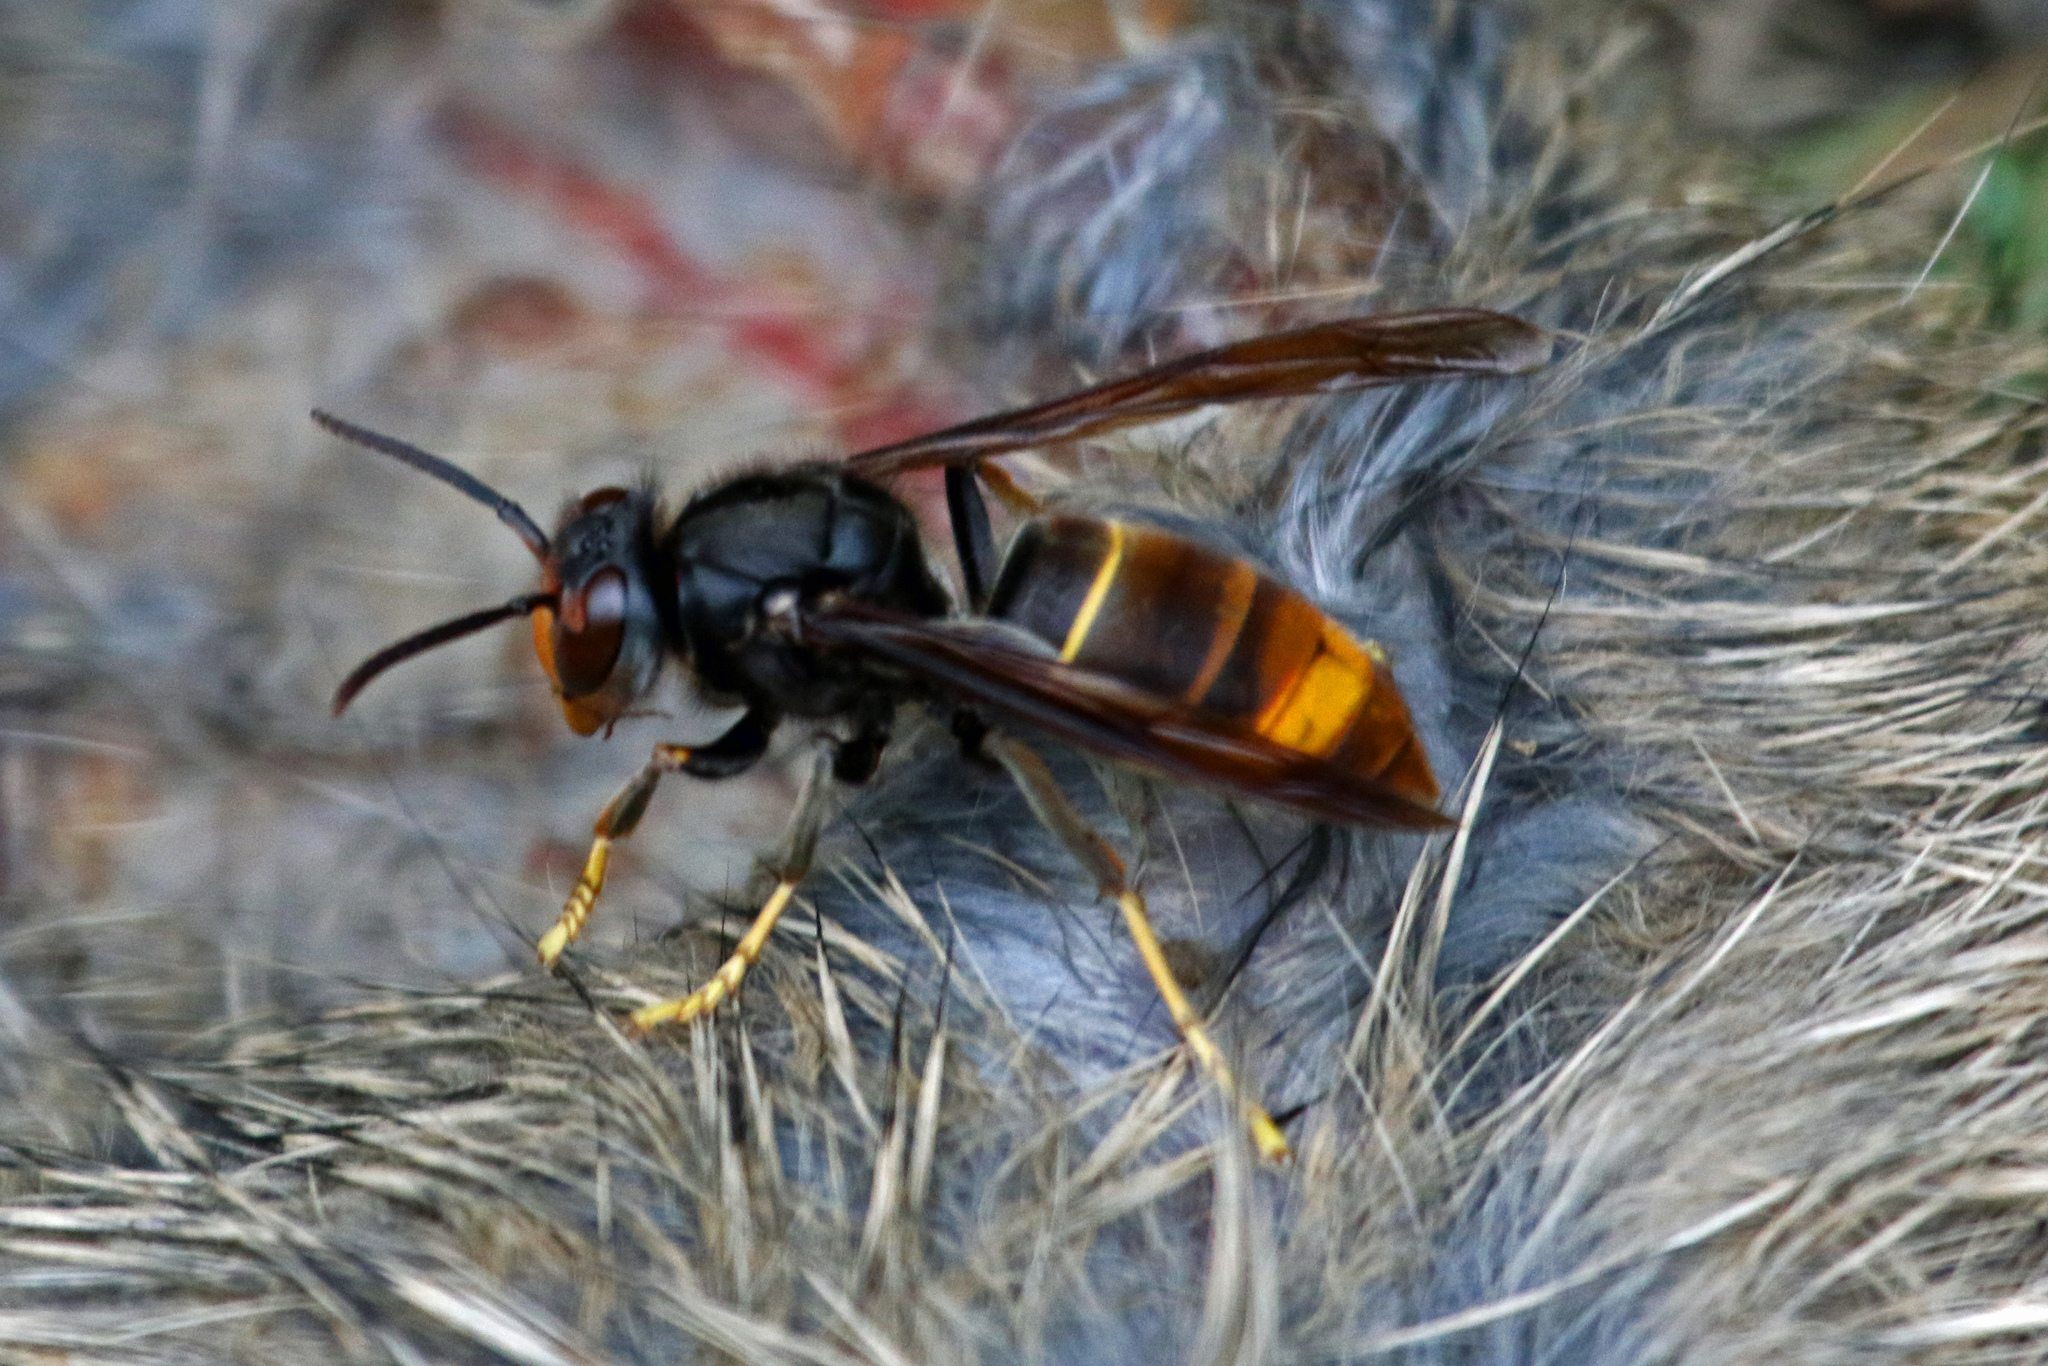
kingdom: Animalia
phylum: Arthropoda
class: Insecta
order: Hymenoptera
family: Vespidae
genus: Vespa
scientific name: Vespa velutina
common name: Asian hornet
